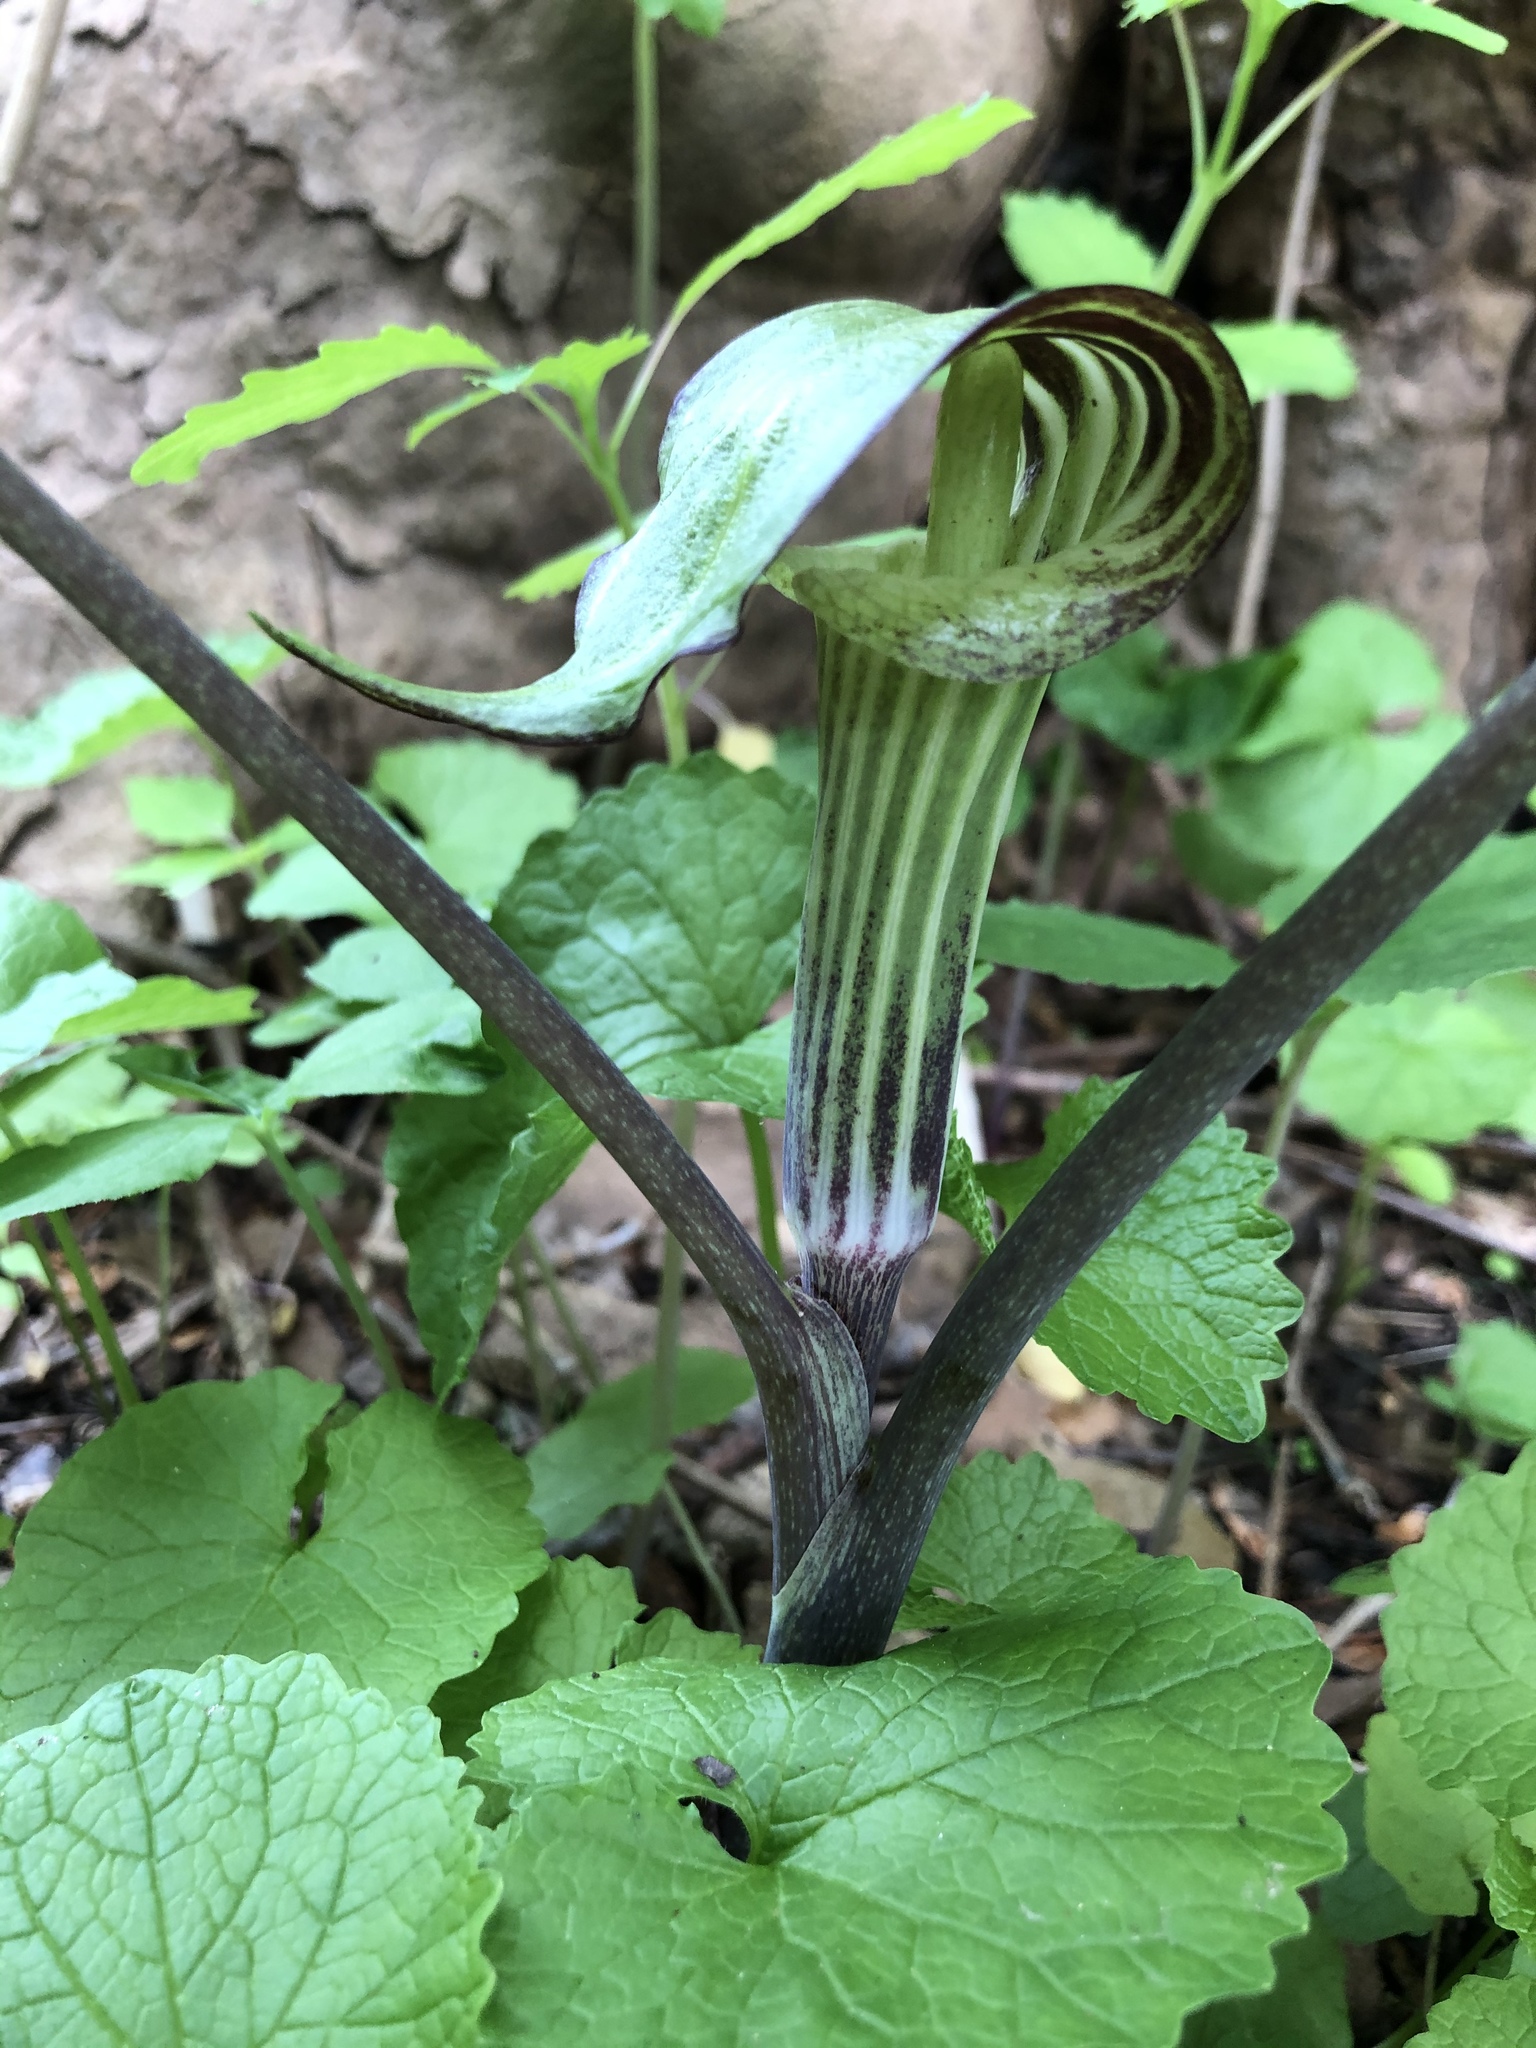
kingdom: Plantae
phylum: Tracheophyta
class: Liliopsida
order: Alismatales
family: Araceae
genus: Arisaema
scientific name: Arisaema triphyllum
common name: Jack-in-the-pulpit
